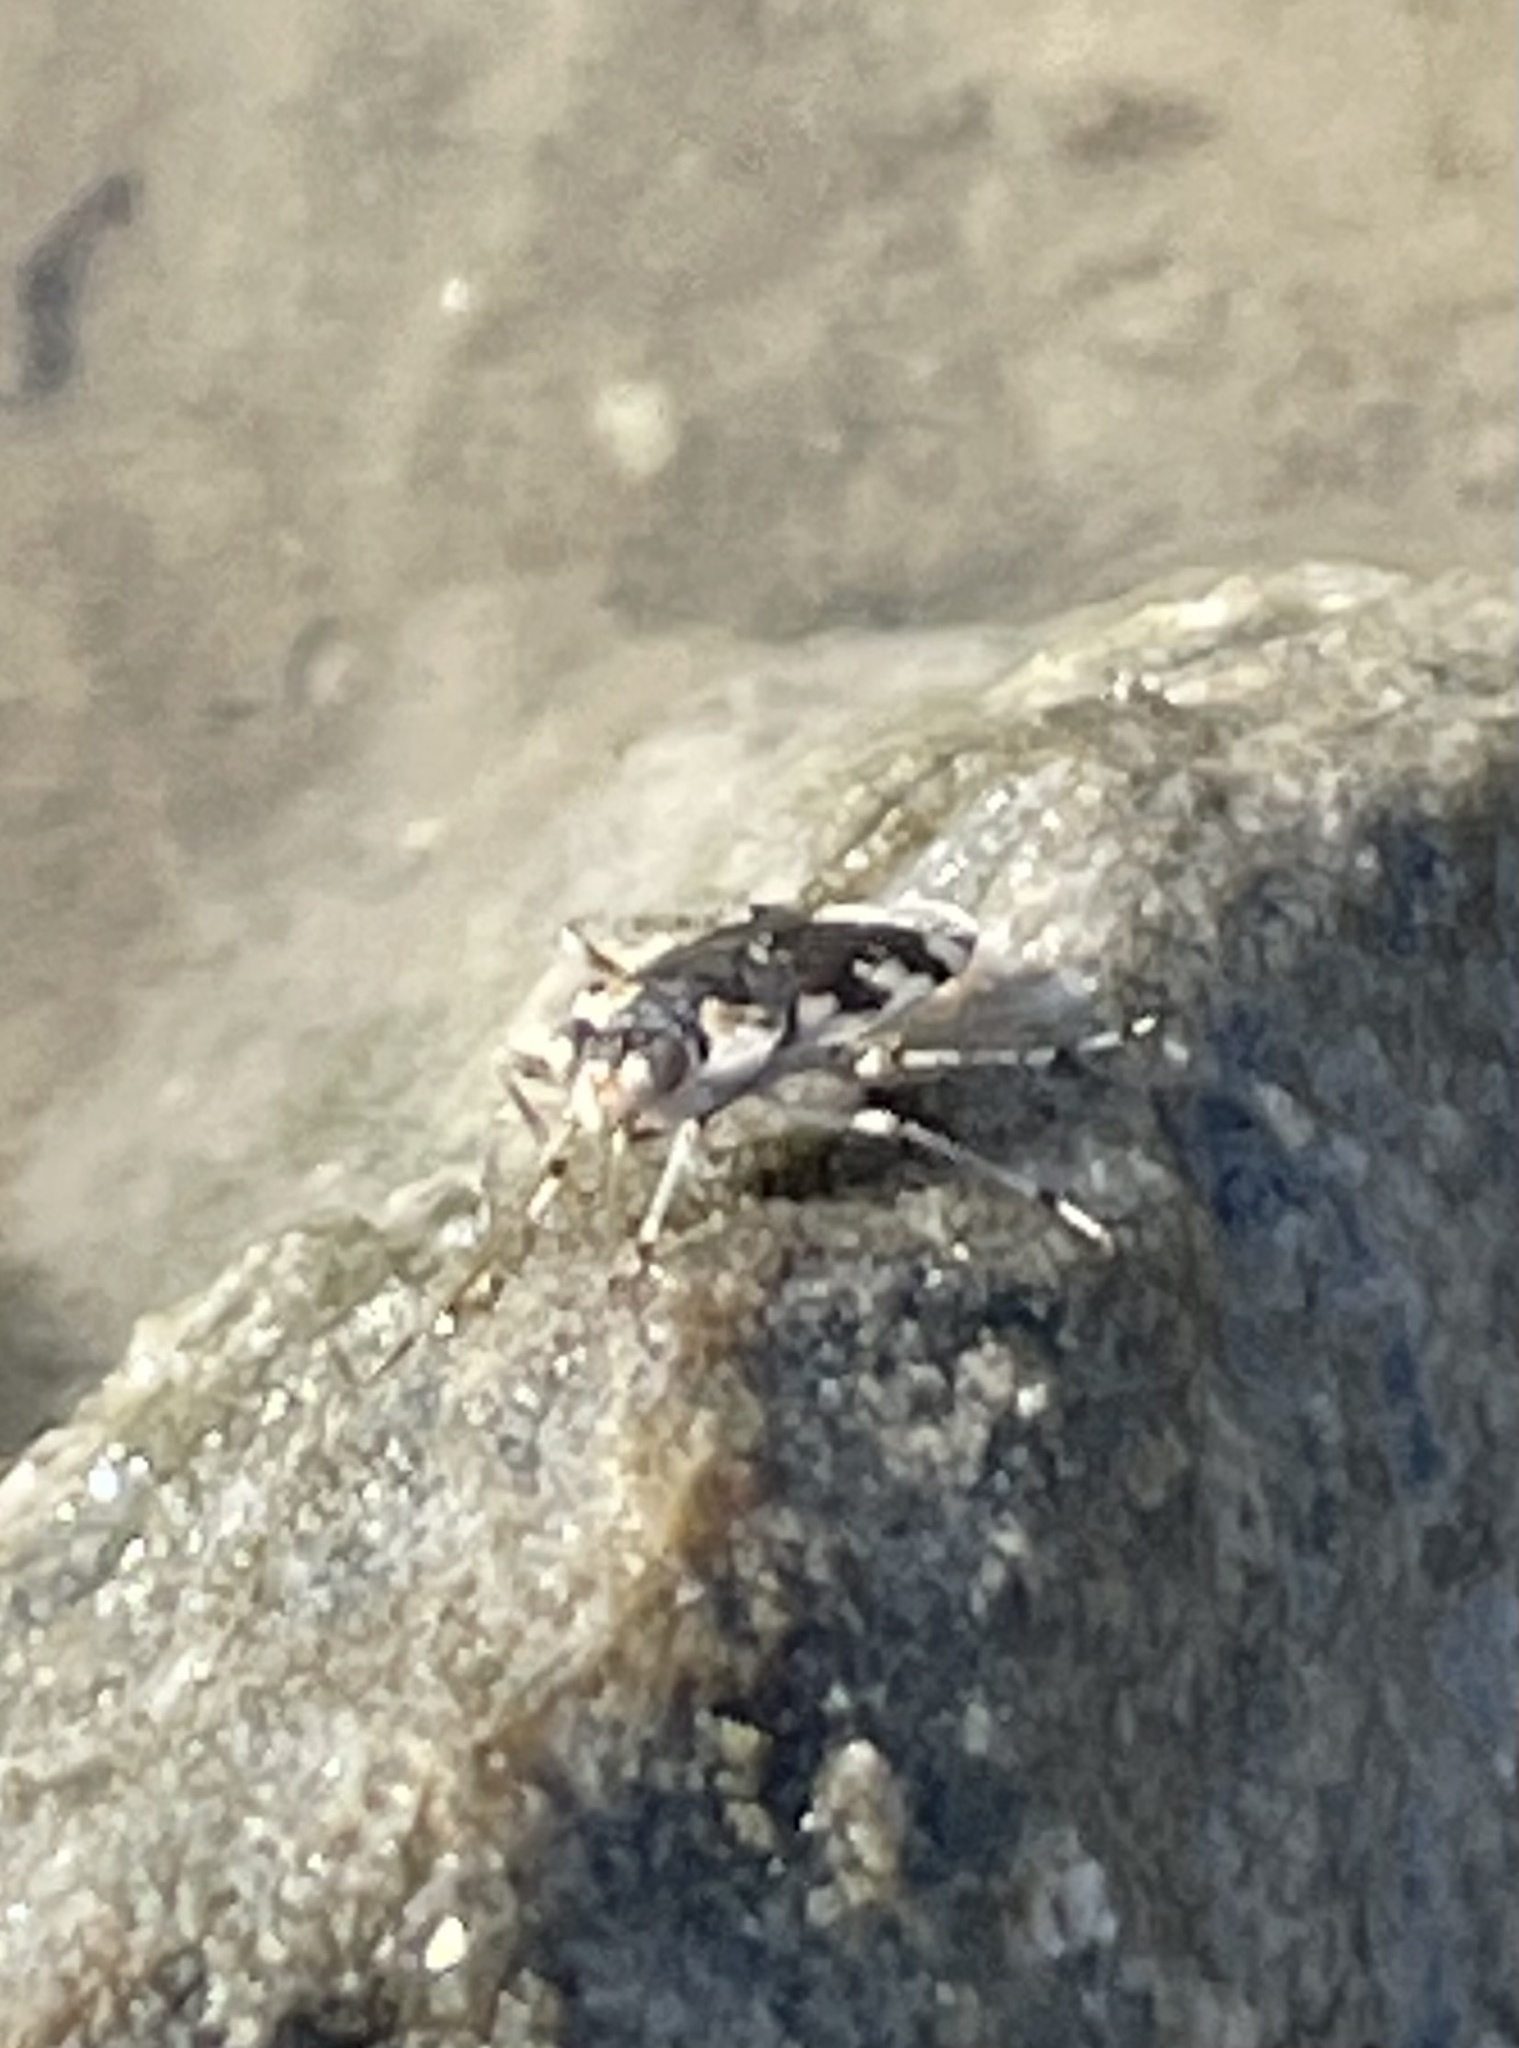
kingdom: Animalia
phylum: Arthropoda
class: Insecta
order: Hemiptera
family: Saldidae
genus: Pentacora
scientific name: Pentacora signoreti
